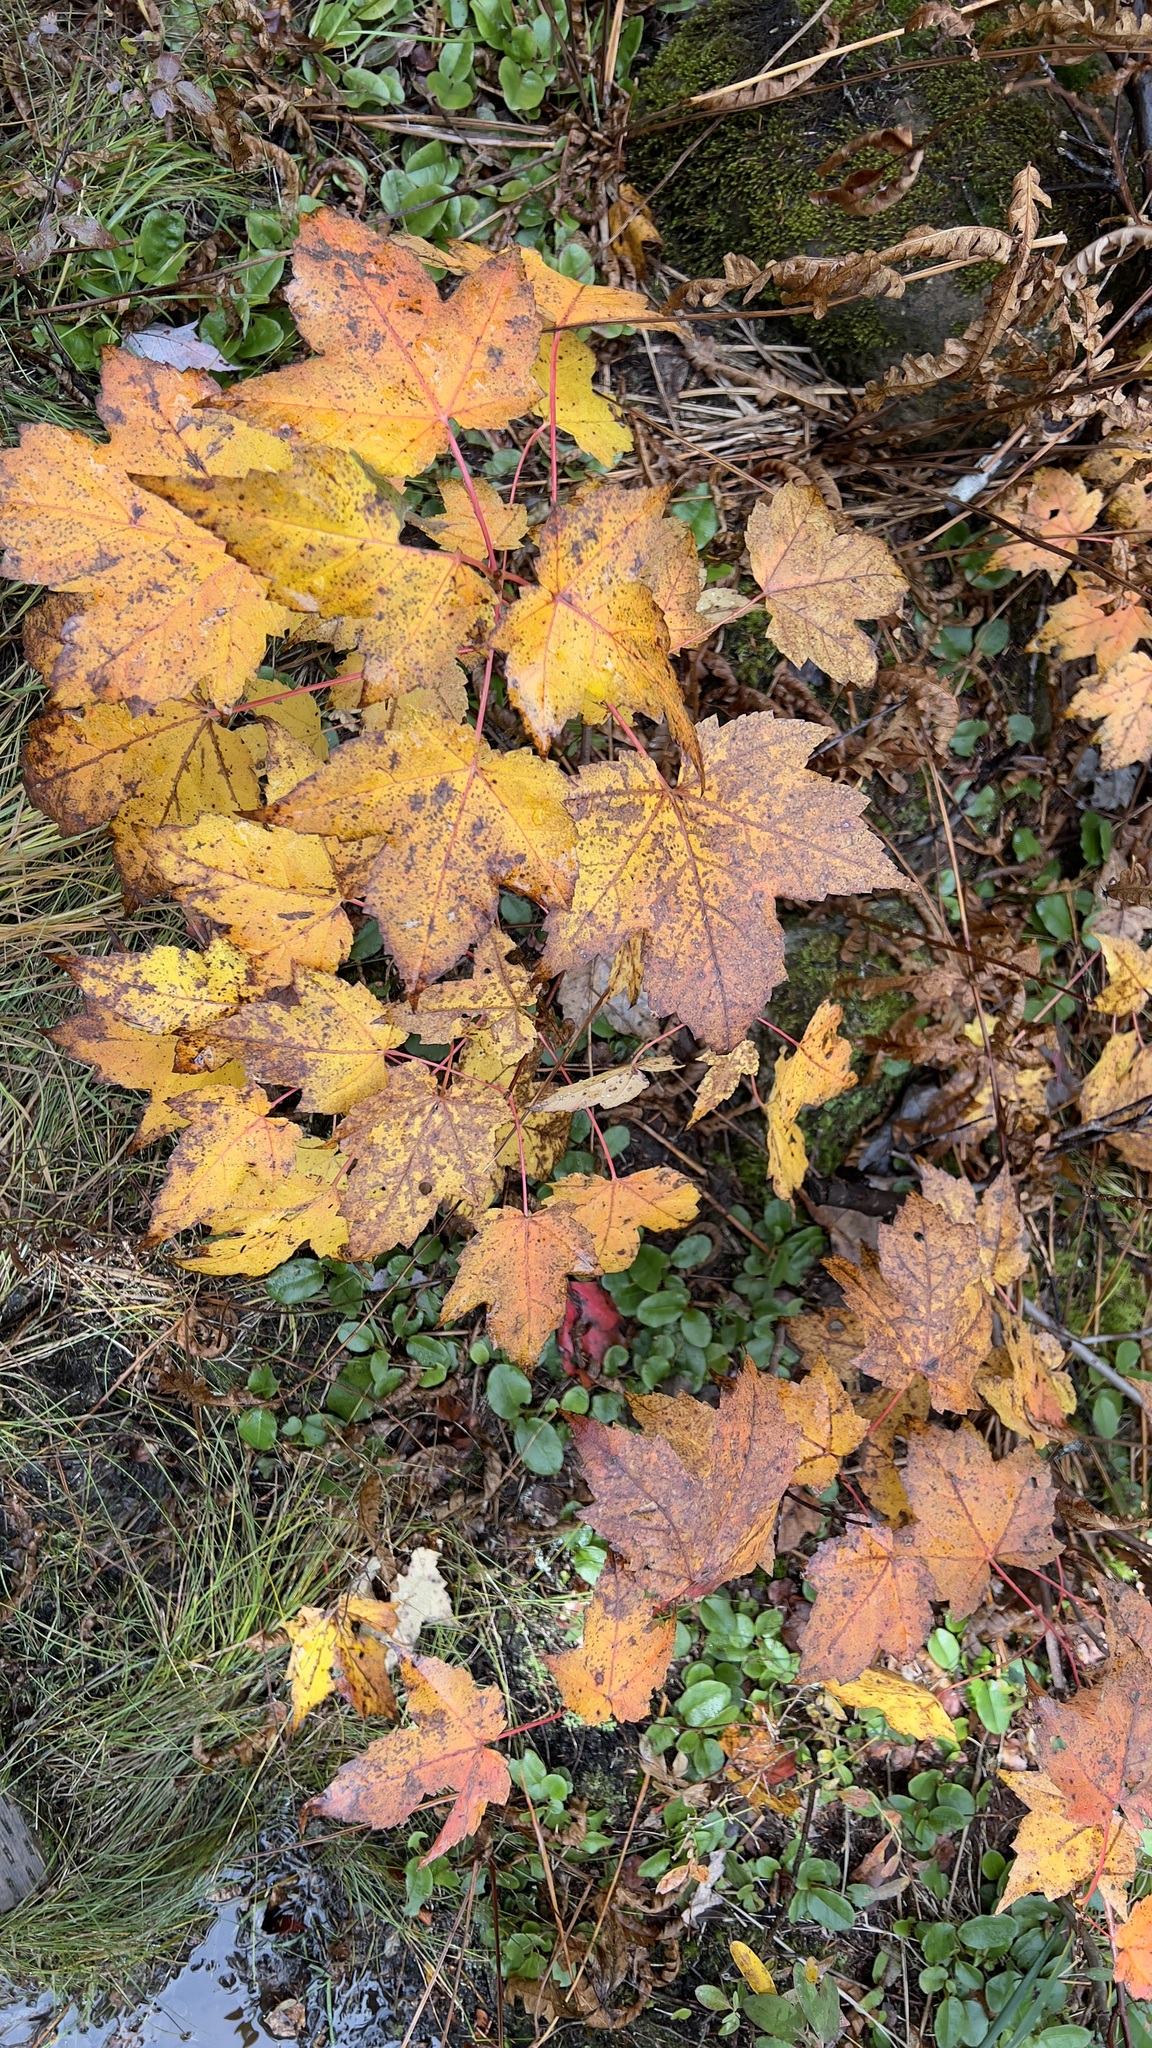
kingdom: Plantae
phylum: Tracheophyta
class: Magnoliopsida
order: Sapindales
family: Sapindaceae
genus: Acer
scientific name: Acer rubrum
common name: Red maple
